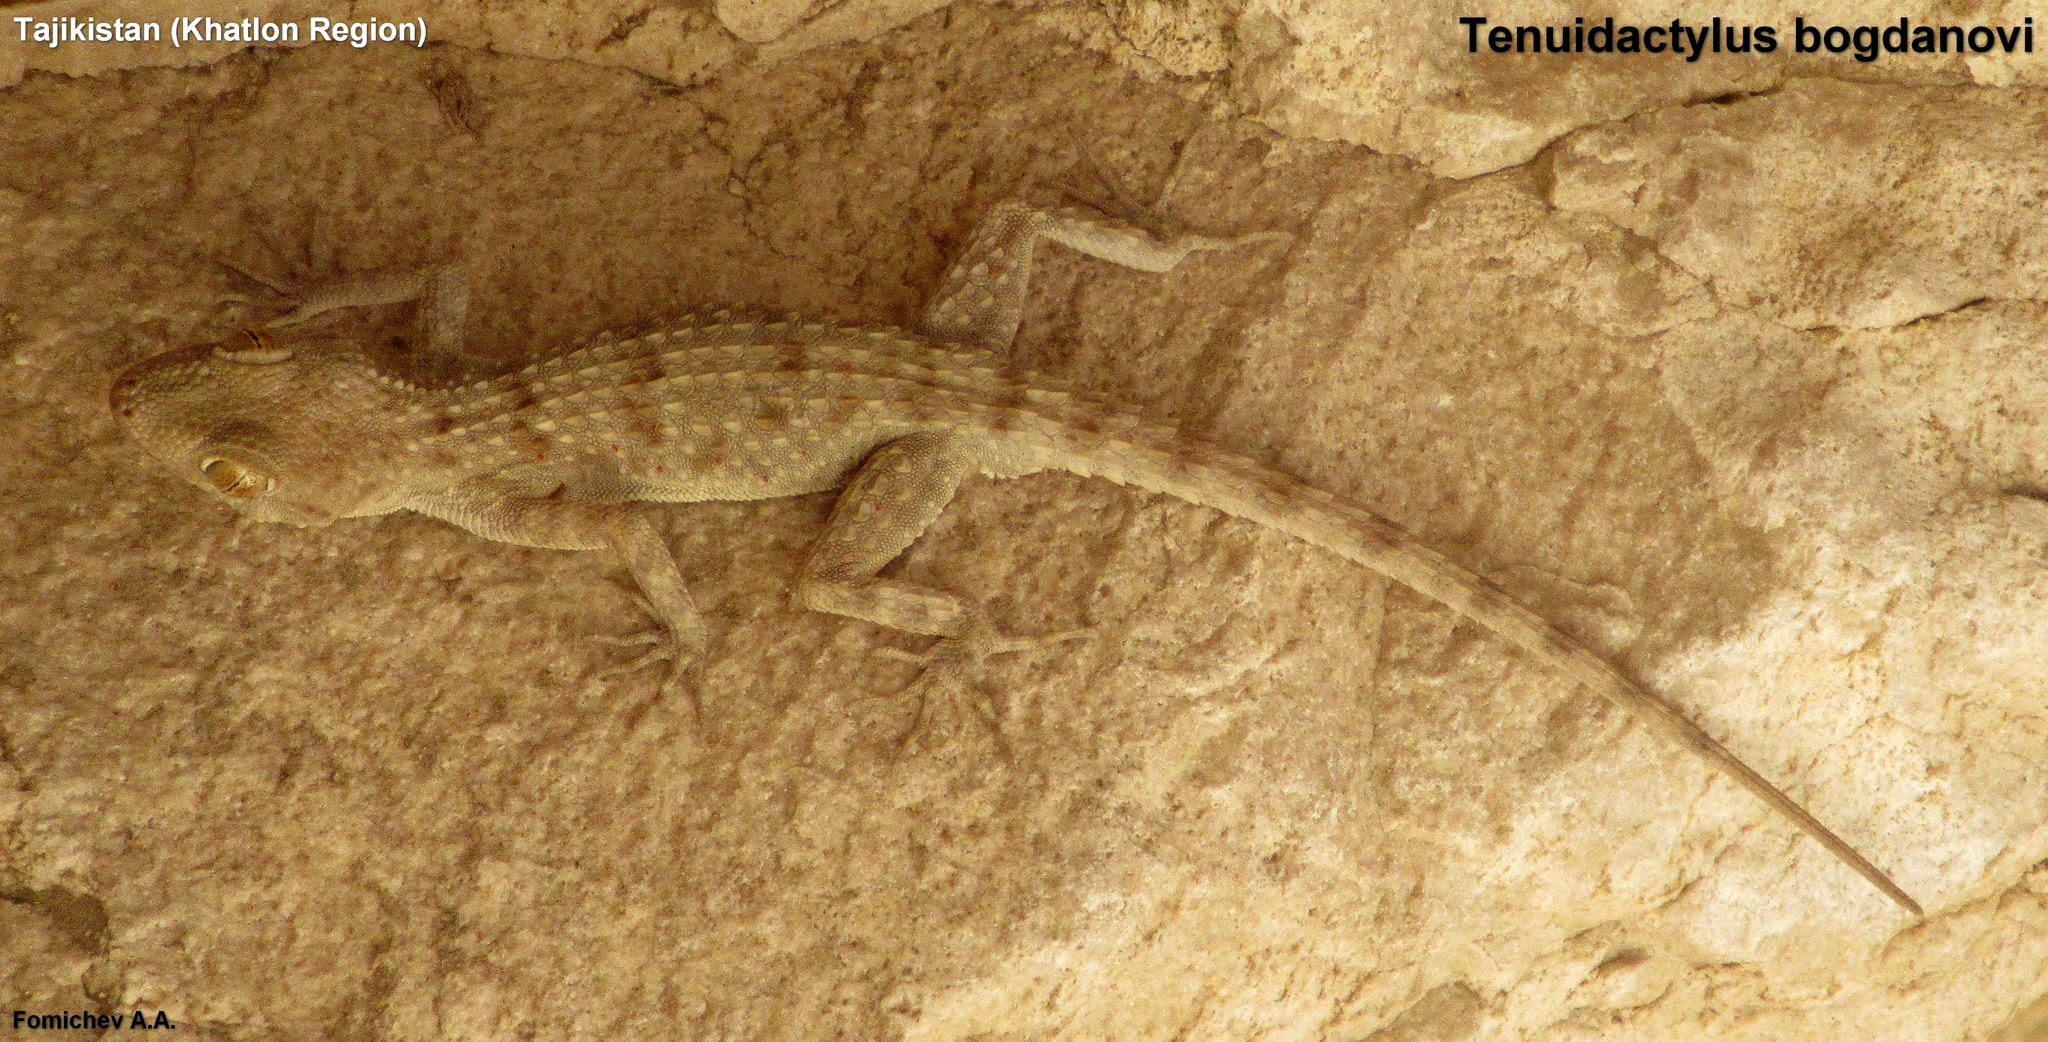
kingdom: Animalia
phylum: Chordata
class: Squamata
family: Gekkonidae
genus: Tenuidactylus
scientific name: Tenuidactylus bogdanovi
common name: Bogdanov’s thin-toed gecko
